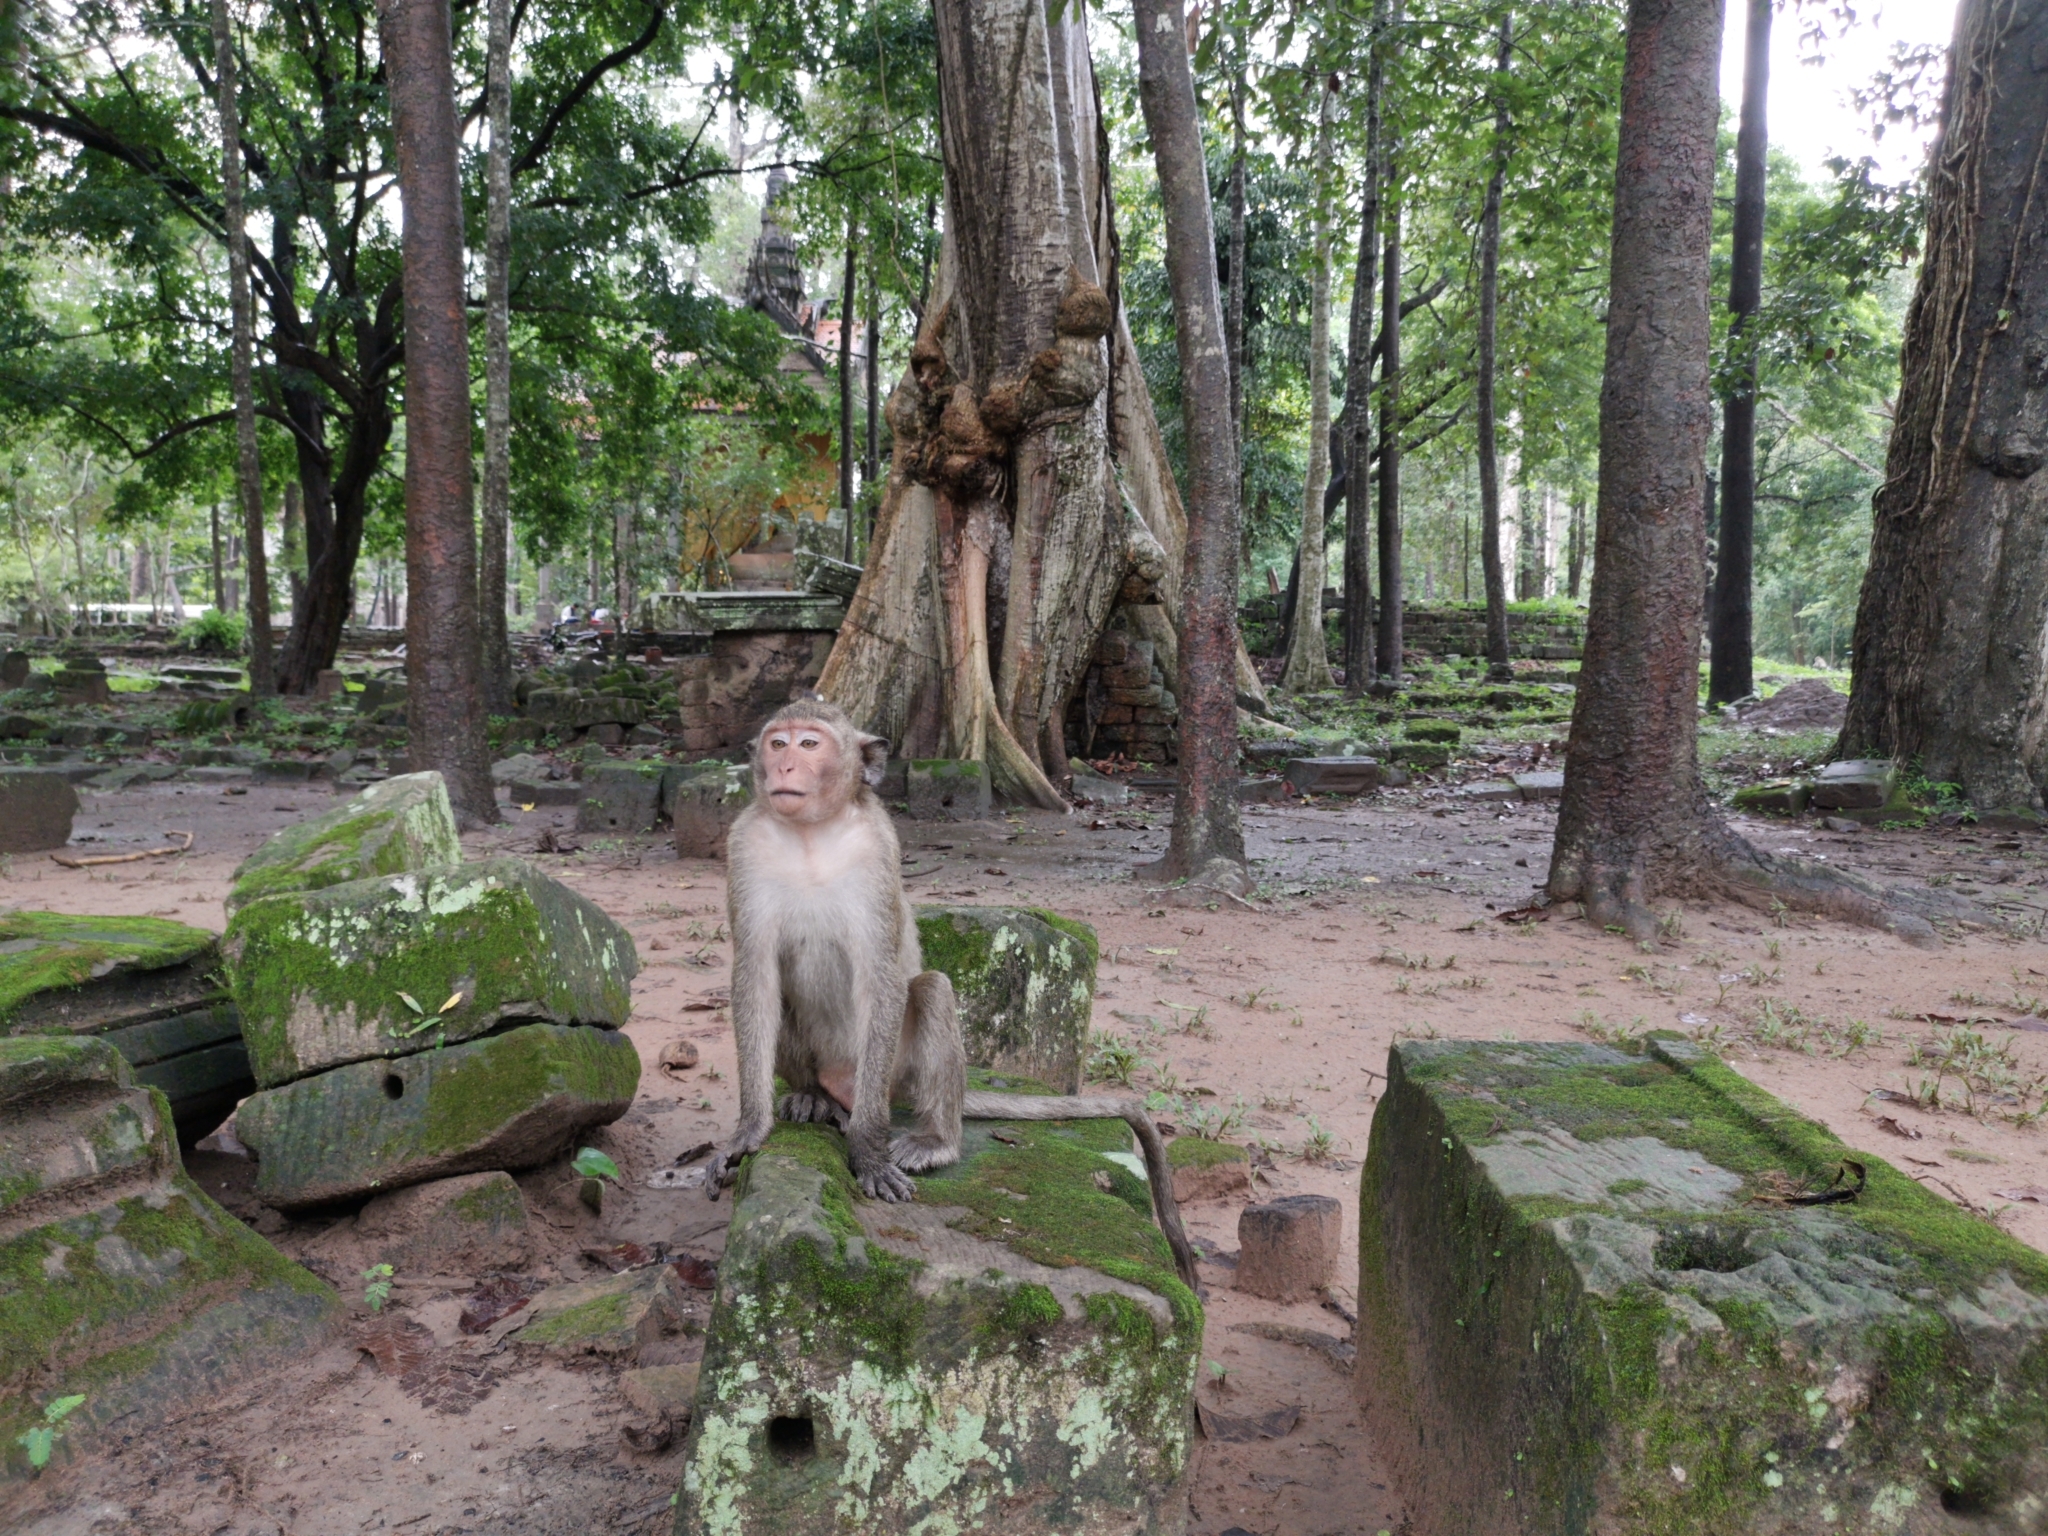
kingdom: Animalia
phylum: Chordata
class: Mammalia
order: Primates
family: Cercopithecidae
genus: Macaca
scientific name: Macaca fascicularis
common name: Crab-eating macaque
